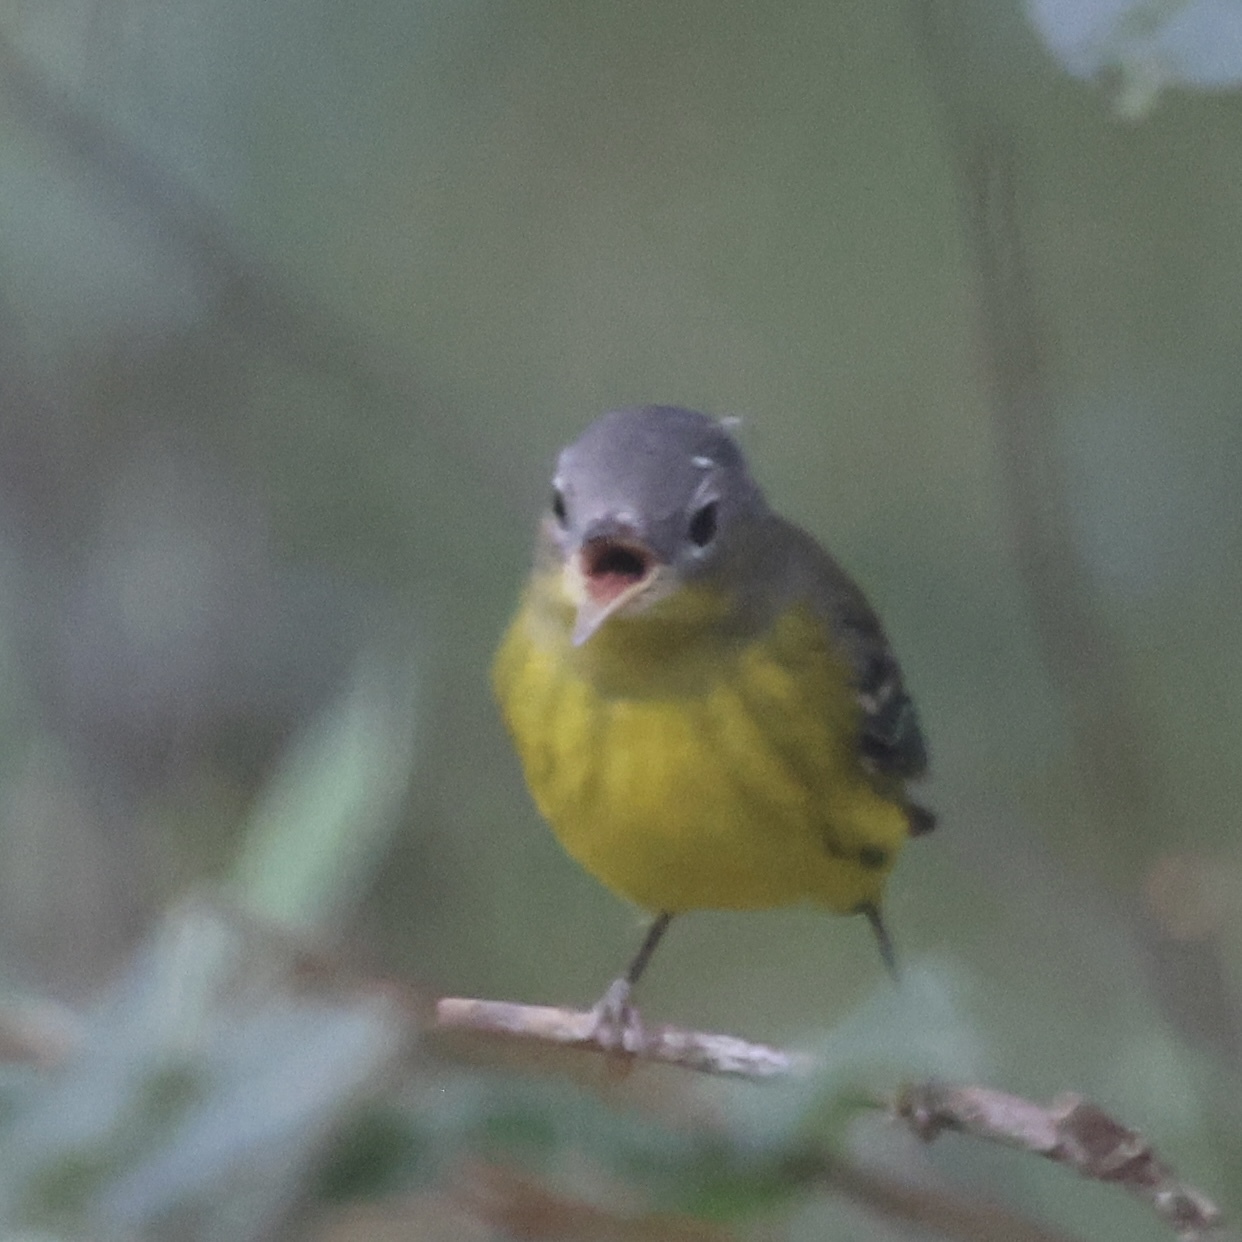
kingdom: Animalia
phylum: Chordata
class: Aves
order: Passeriformes
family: Parulidae
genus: Setophaga
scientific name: Setophaga magnolia
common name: Magnolia warbler
